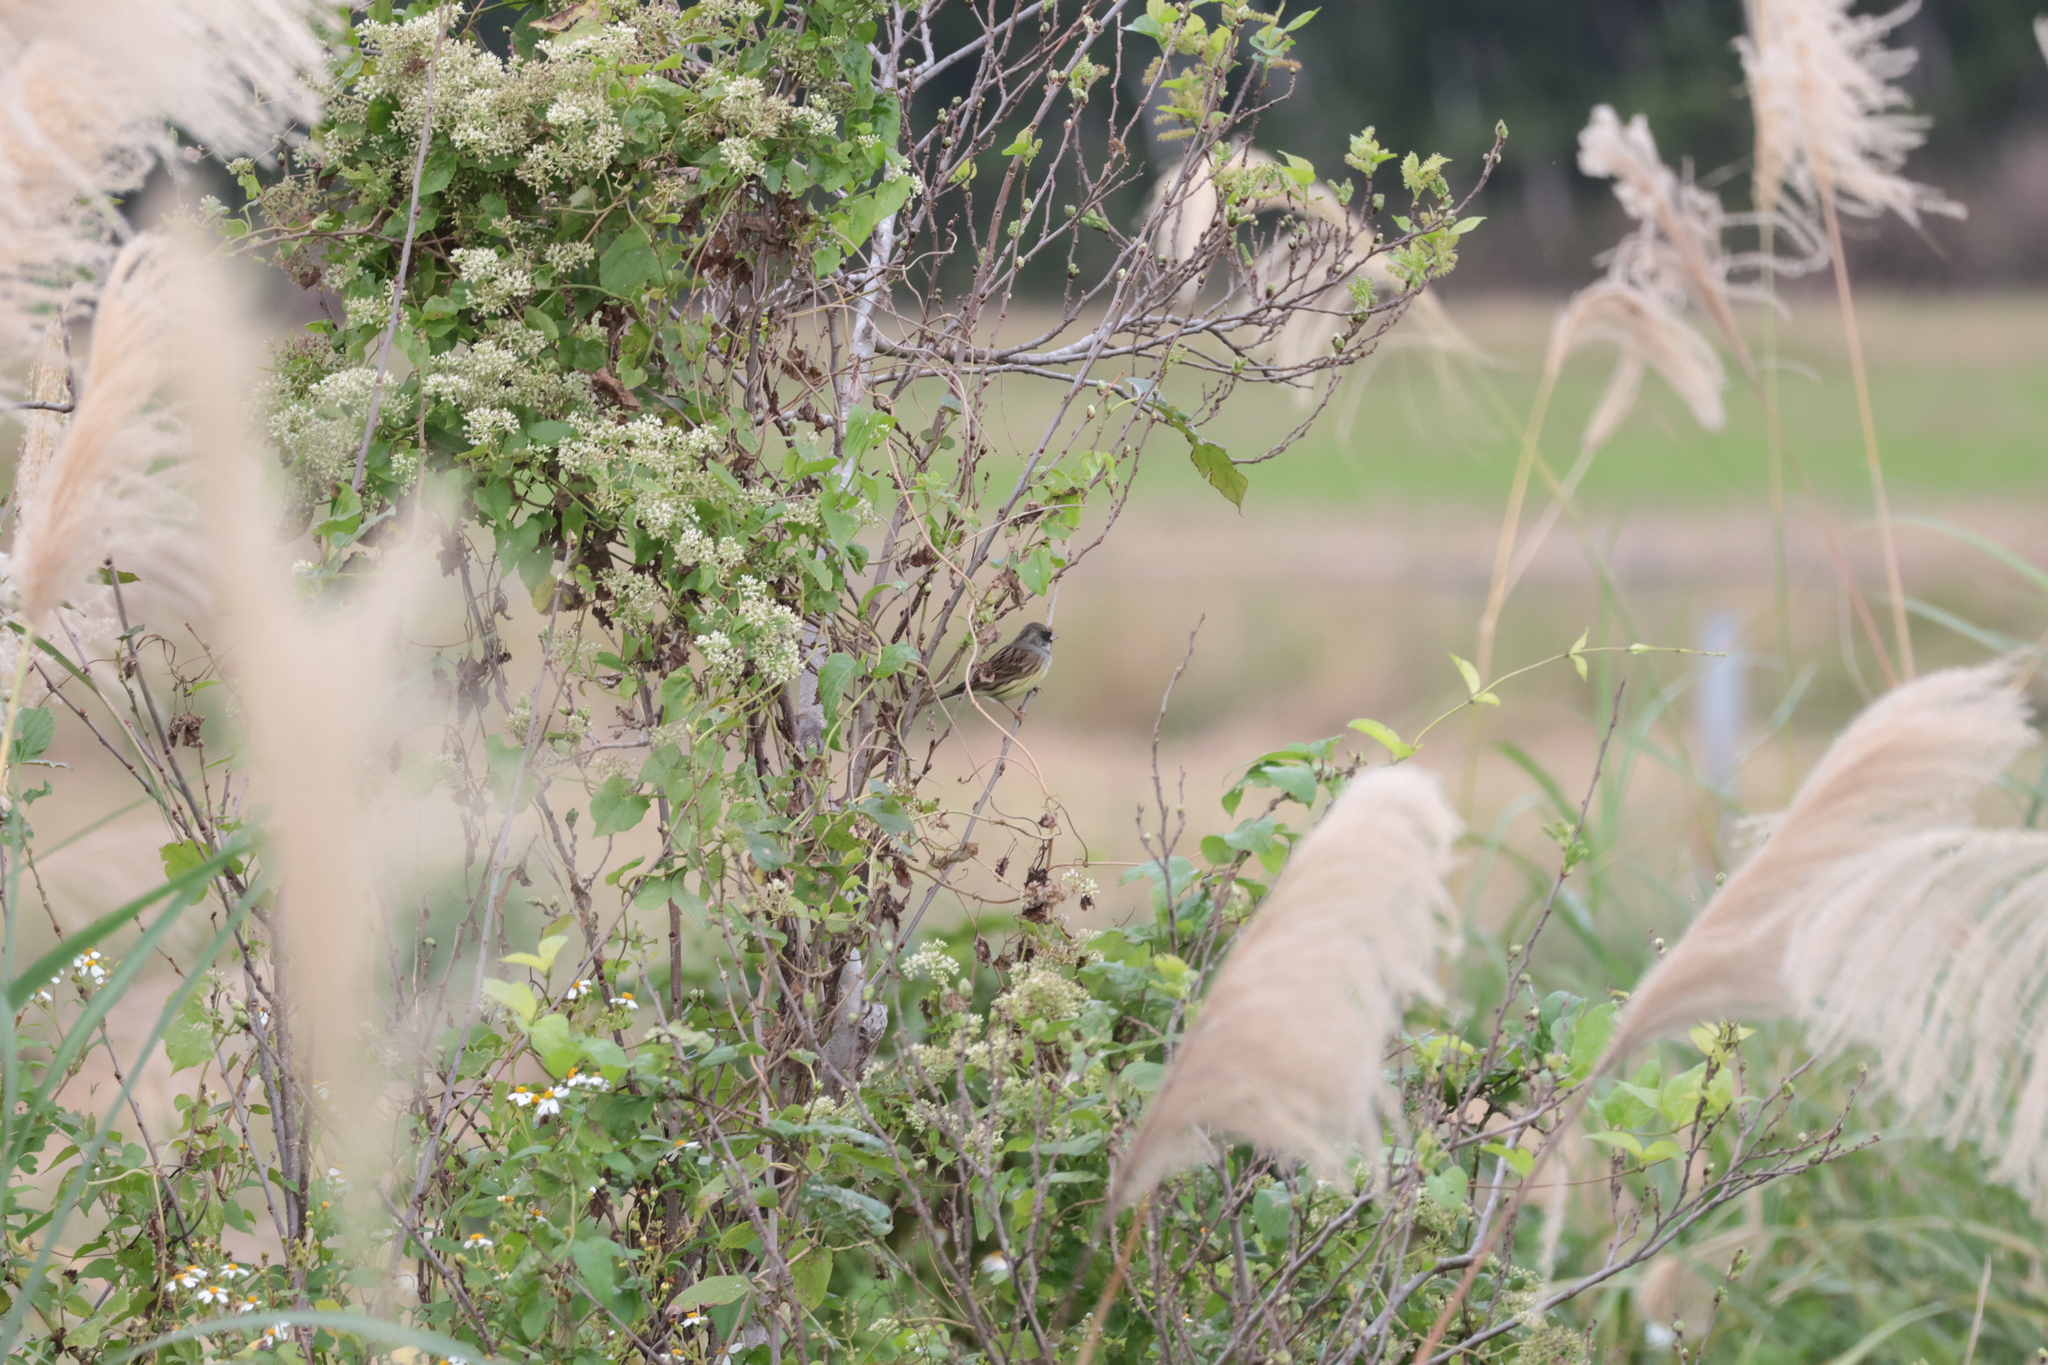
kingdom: Animalia
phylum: Chordata
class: Aves
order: Passeriformes
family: Emberizidae
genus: Emberiza
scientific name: Emberiza spodocephala
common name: Black-faced bunting
